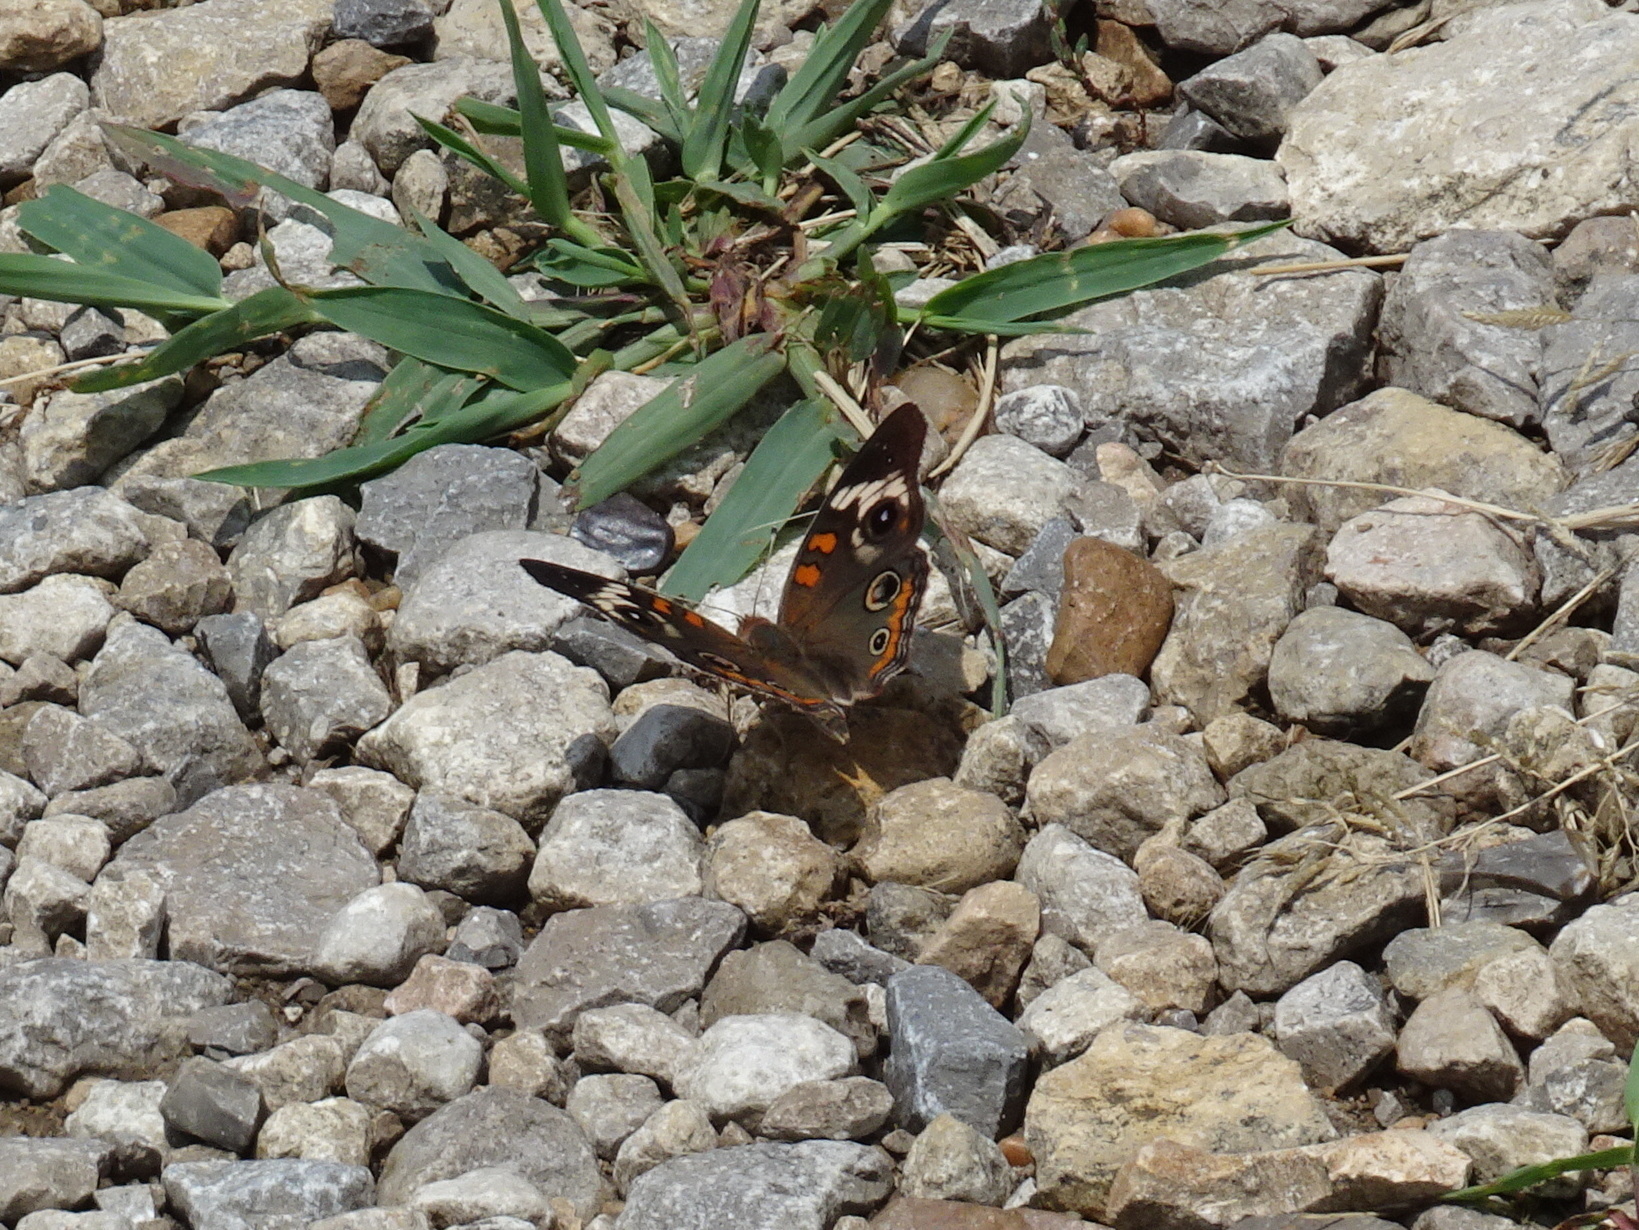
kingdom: Animalia
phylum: Arthropoda
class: Insecta
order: Lepidoptera
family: Nymphalidae
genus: Junonia
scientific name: Junonia coenia
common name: Common buckeye
